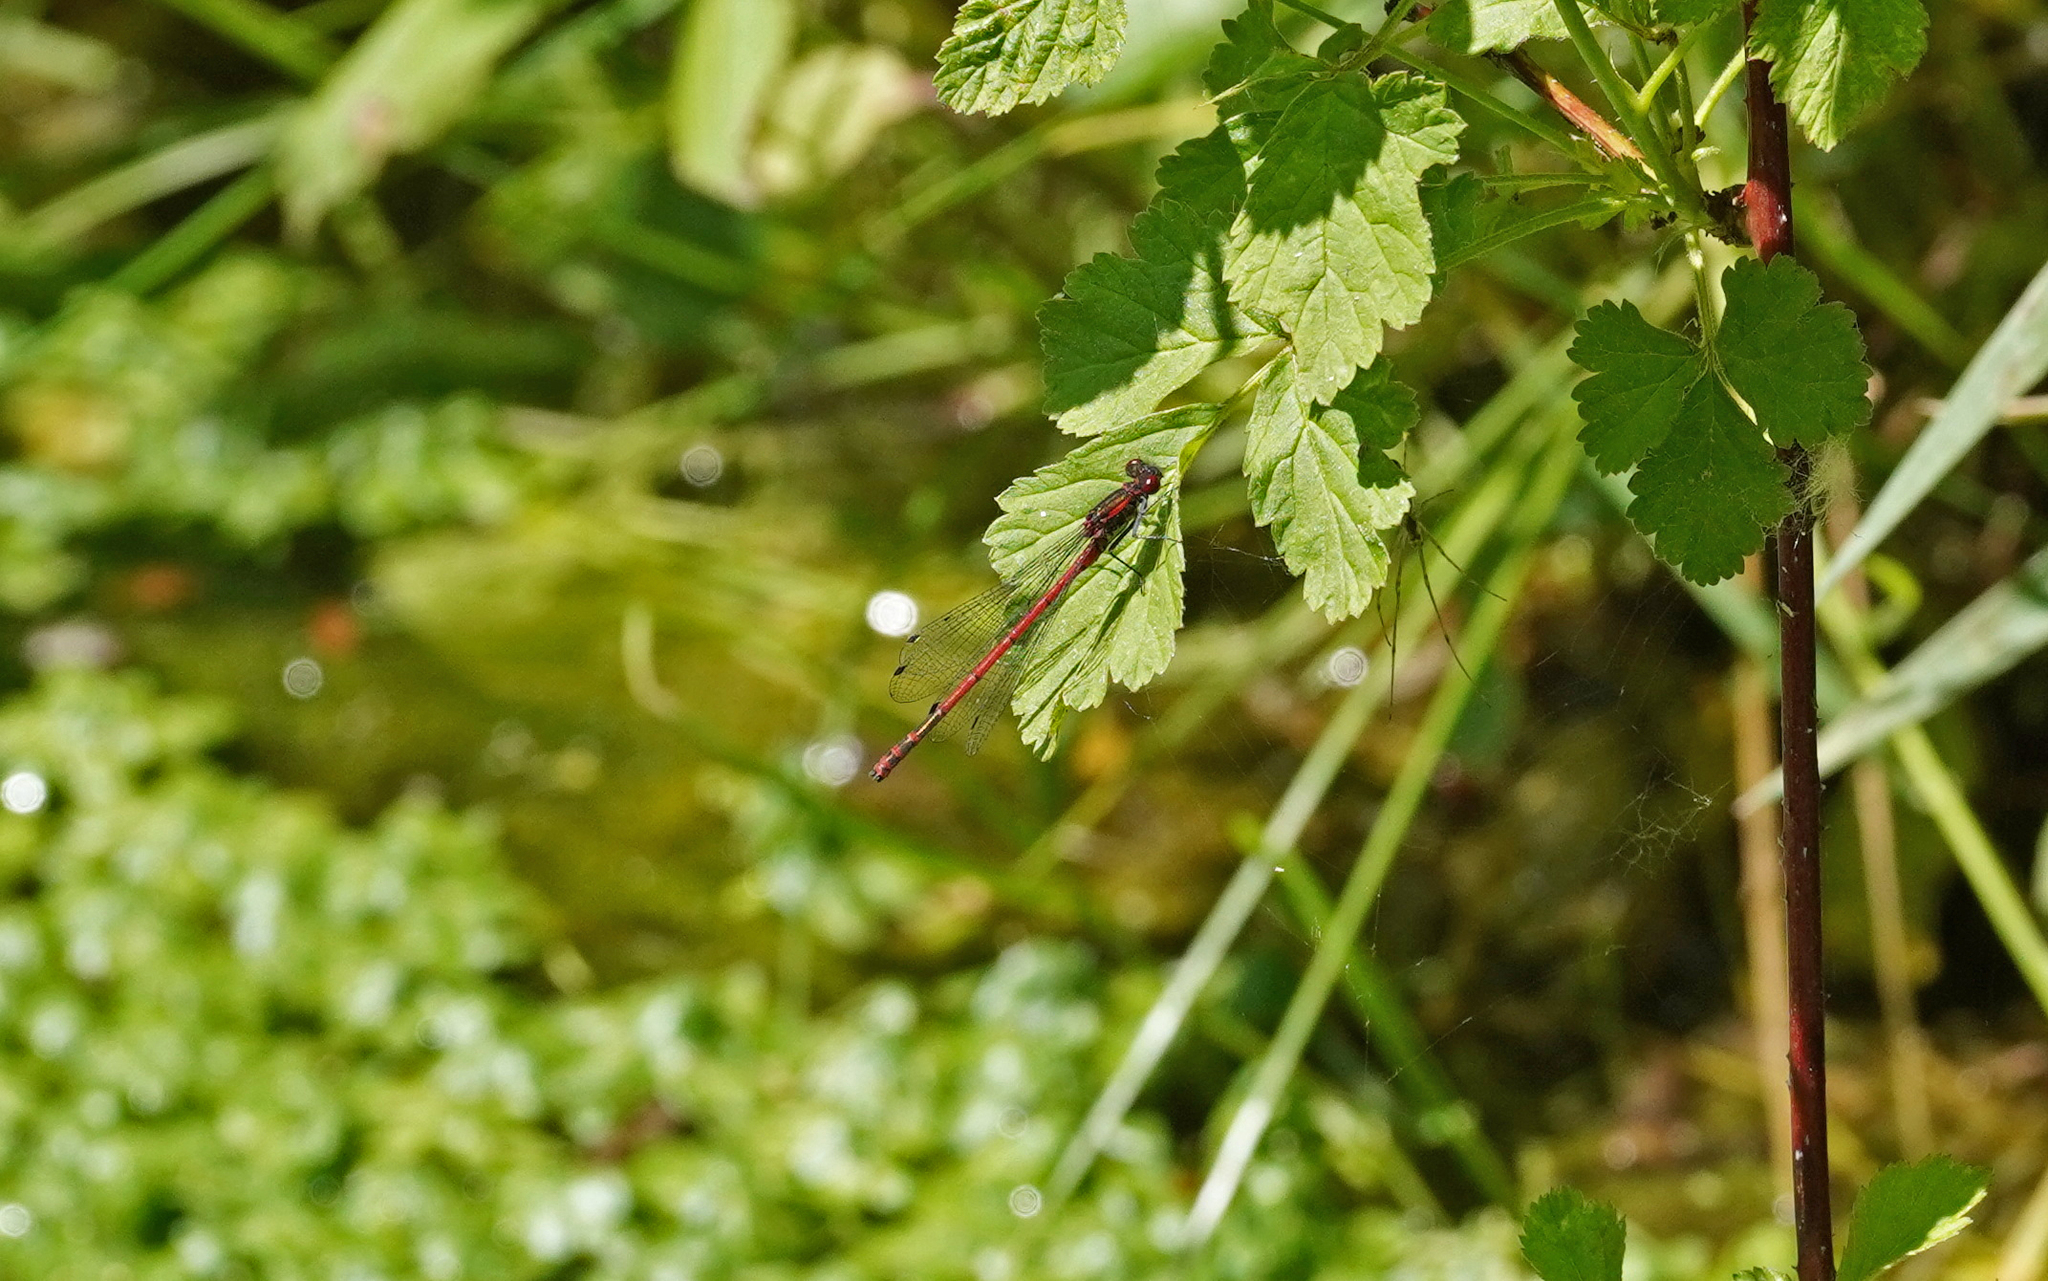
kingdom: Animalia
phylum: Arthropoda
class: Insecta
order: Odonata
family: Coenagrionidae
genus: Pyrrhosoma
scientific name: Pyrrhosoma nymphula
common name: Large red damsel
